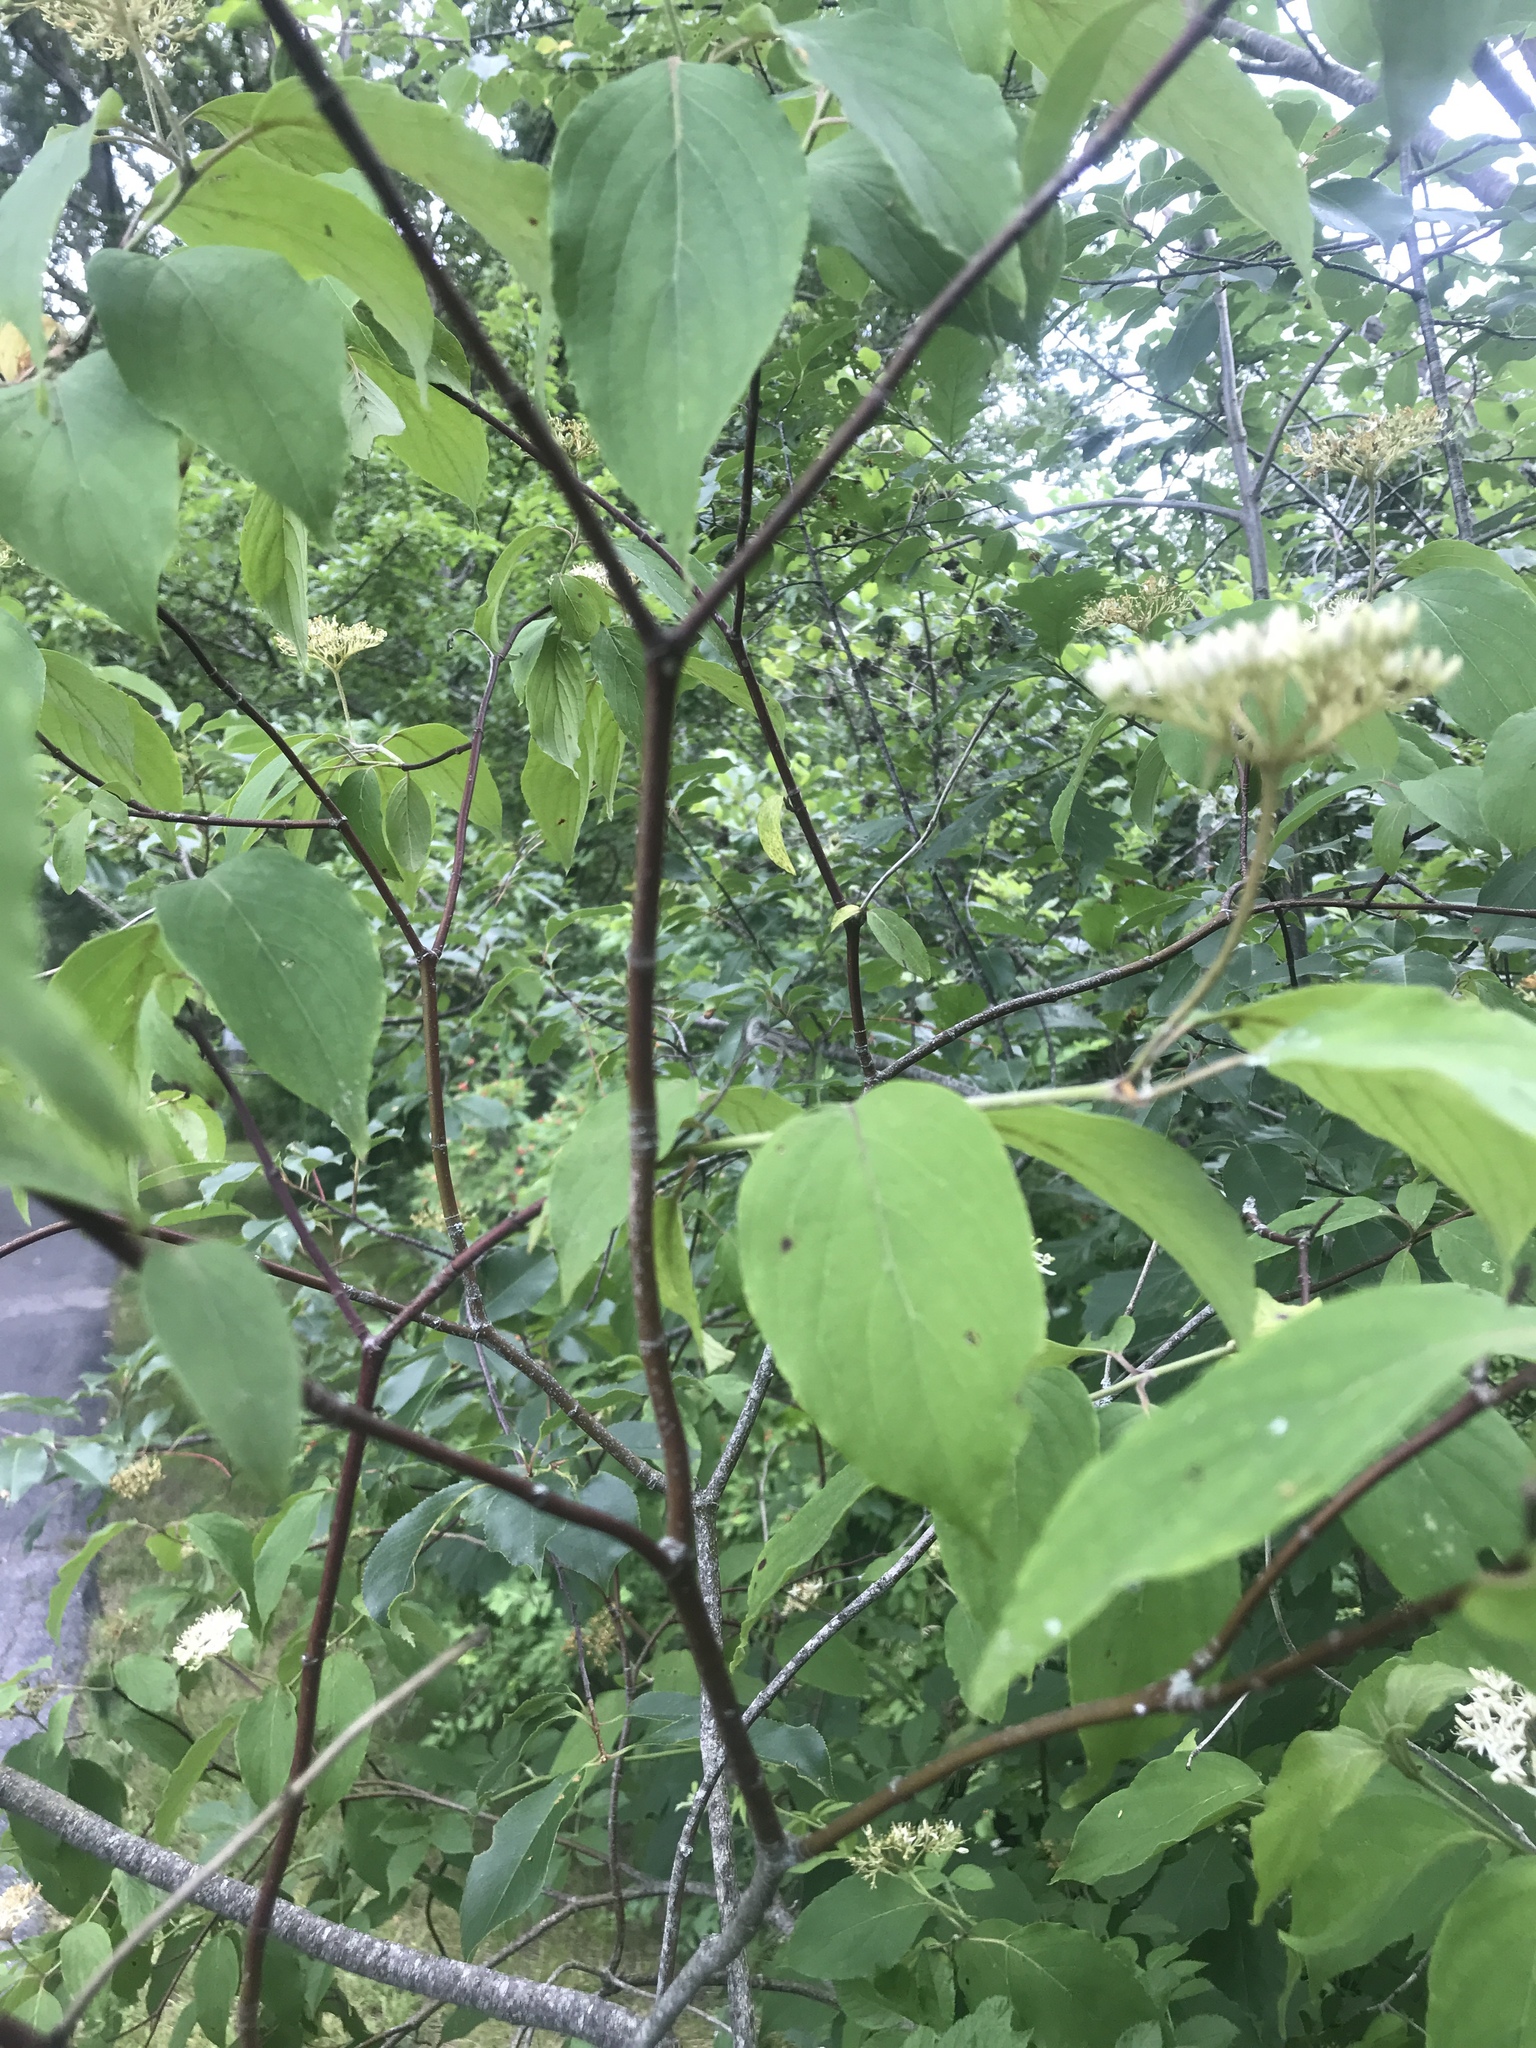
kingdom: Plantae
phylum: Tracheophyta
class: Magnoliopsida
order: Cornales
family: Cornaceae
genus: Cornus
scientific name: Cornus amomum
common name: Silky dogwood
